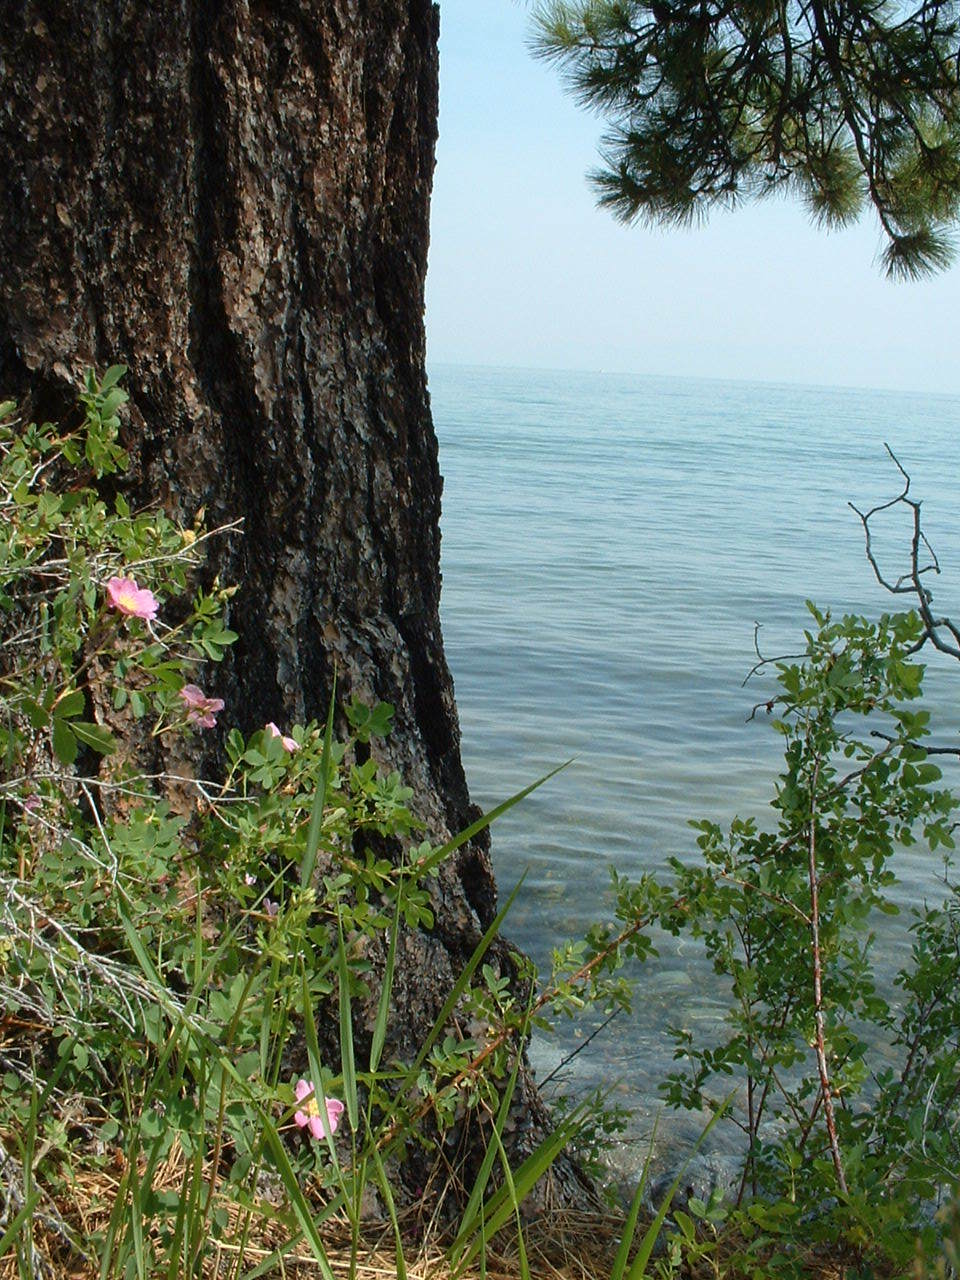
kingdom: Plantae
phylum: Tracheophyta
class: Magnoliopsida
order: Rosales
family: Rosaceae
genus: Rosa
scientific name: Rosa woodsii
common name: Woods's rose
